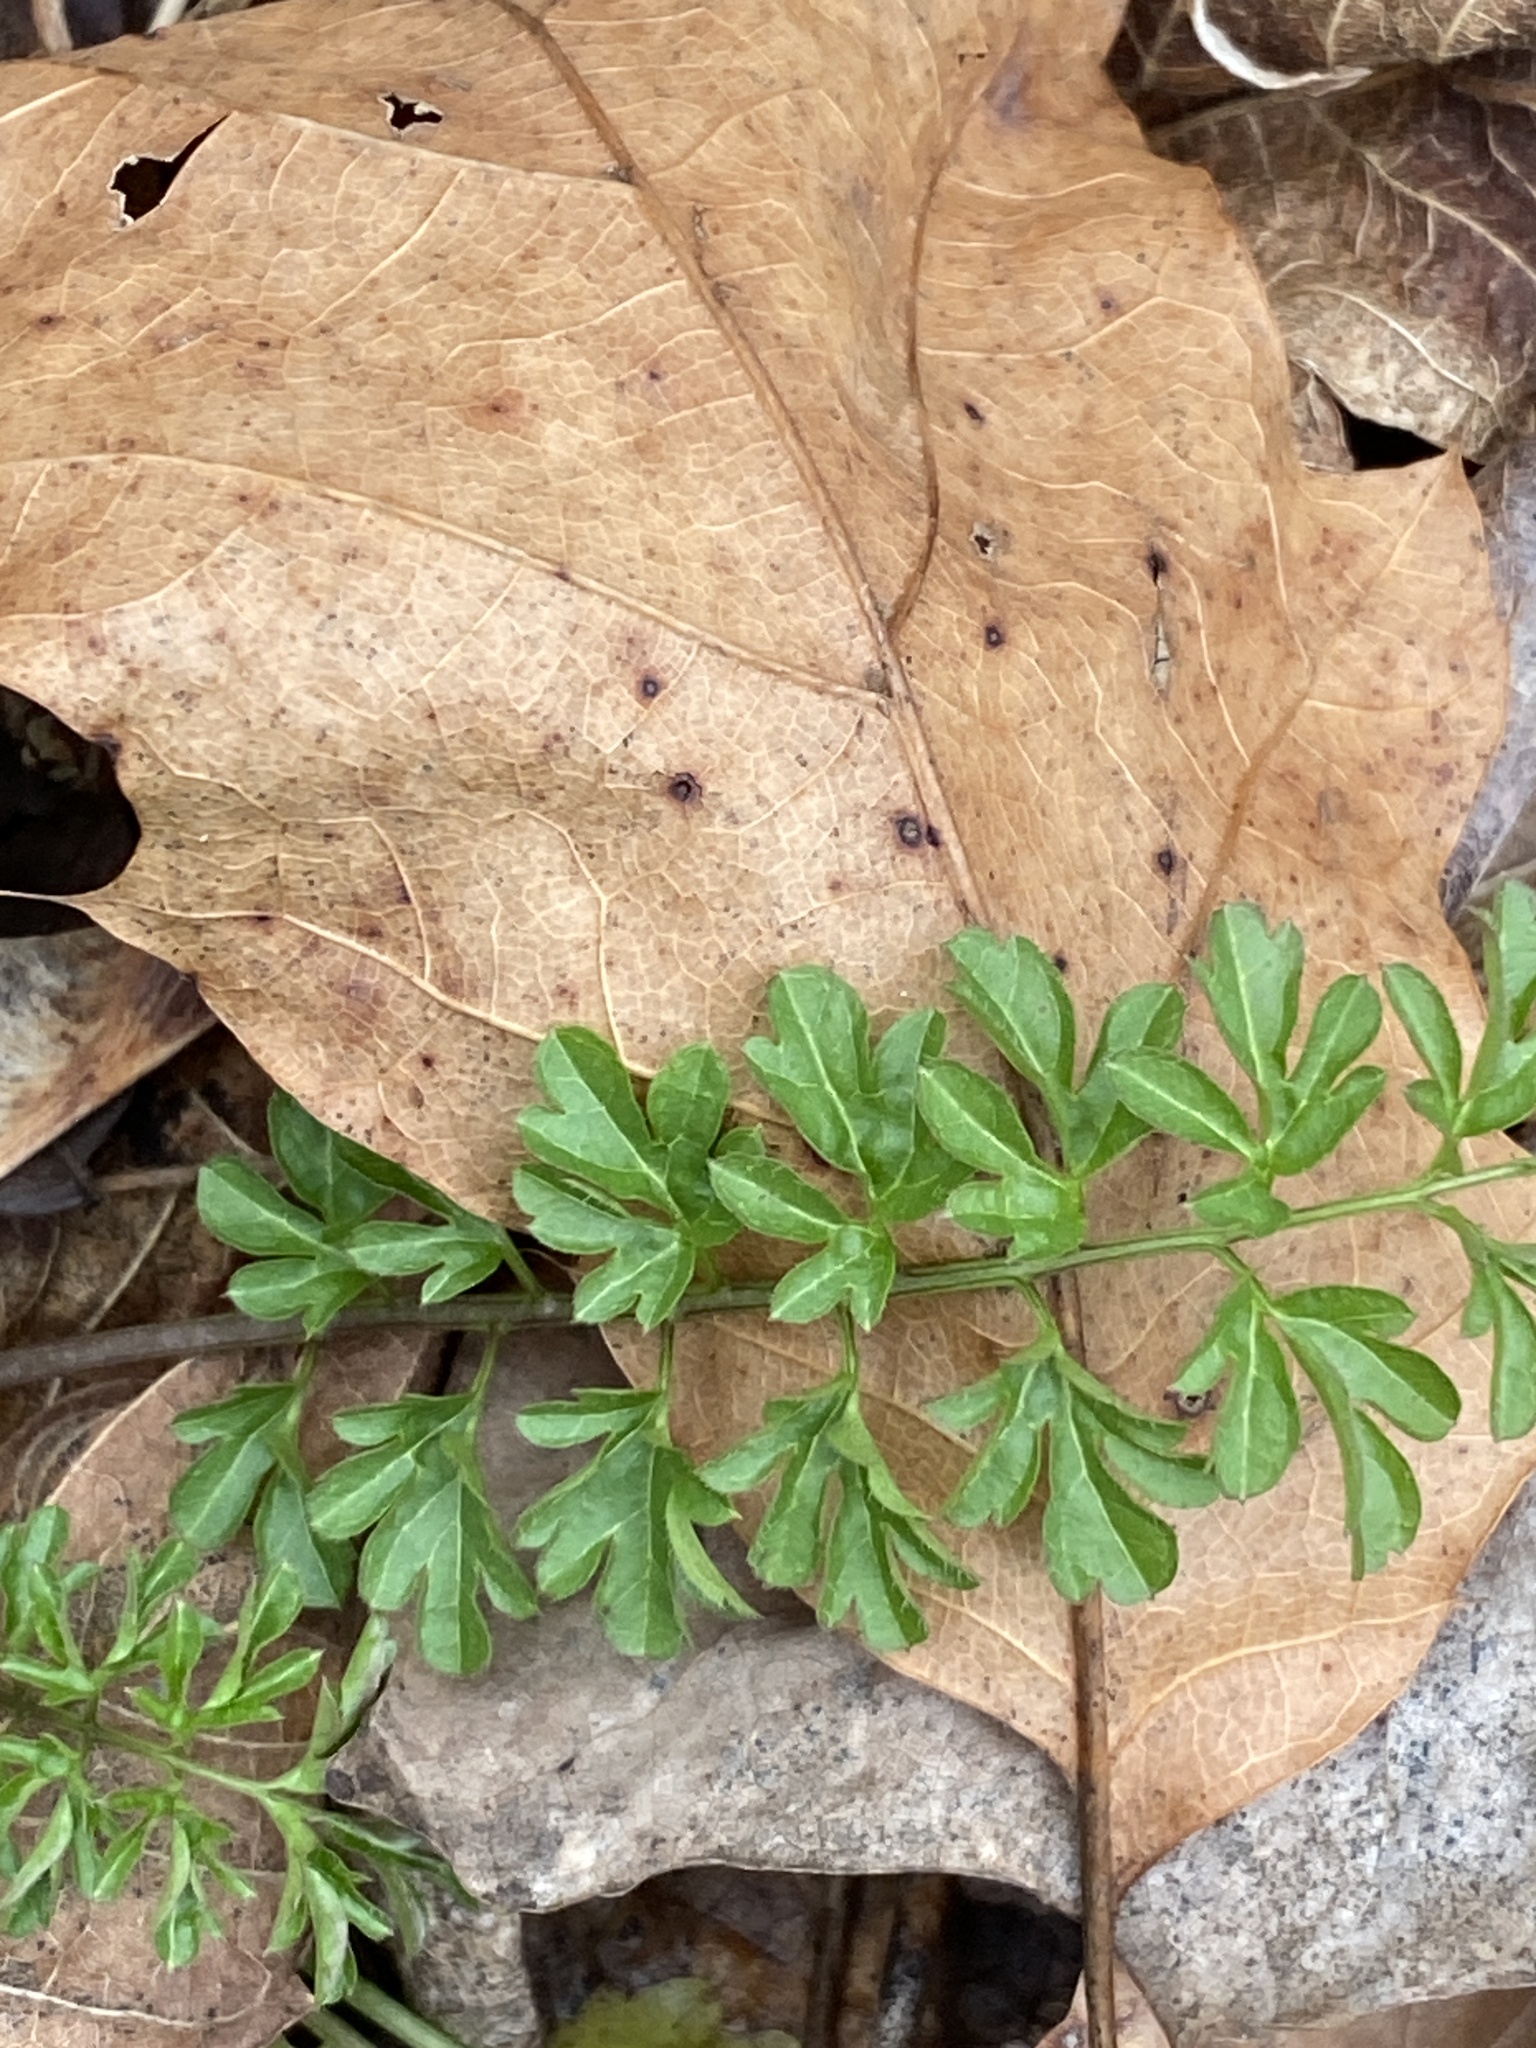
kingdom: Plantae
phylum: Tracheophyta
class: Magnoliopsida
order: Brassicales
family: Brassicaceae
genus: Cardamine
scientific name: Cardamine impatiens
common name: Narrow-leaved bitter-cress
